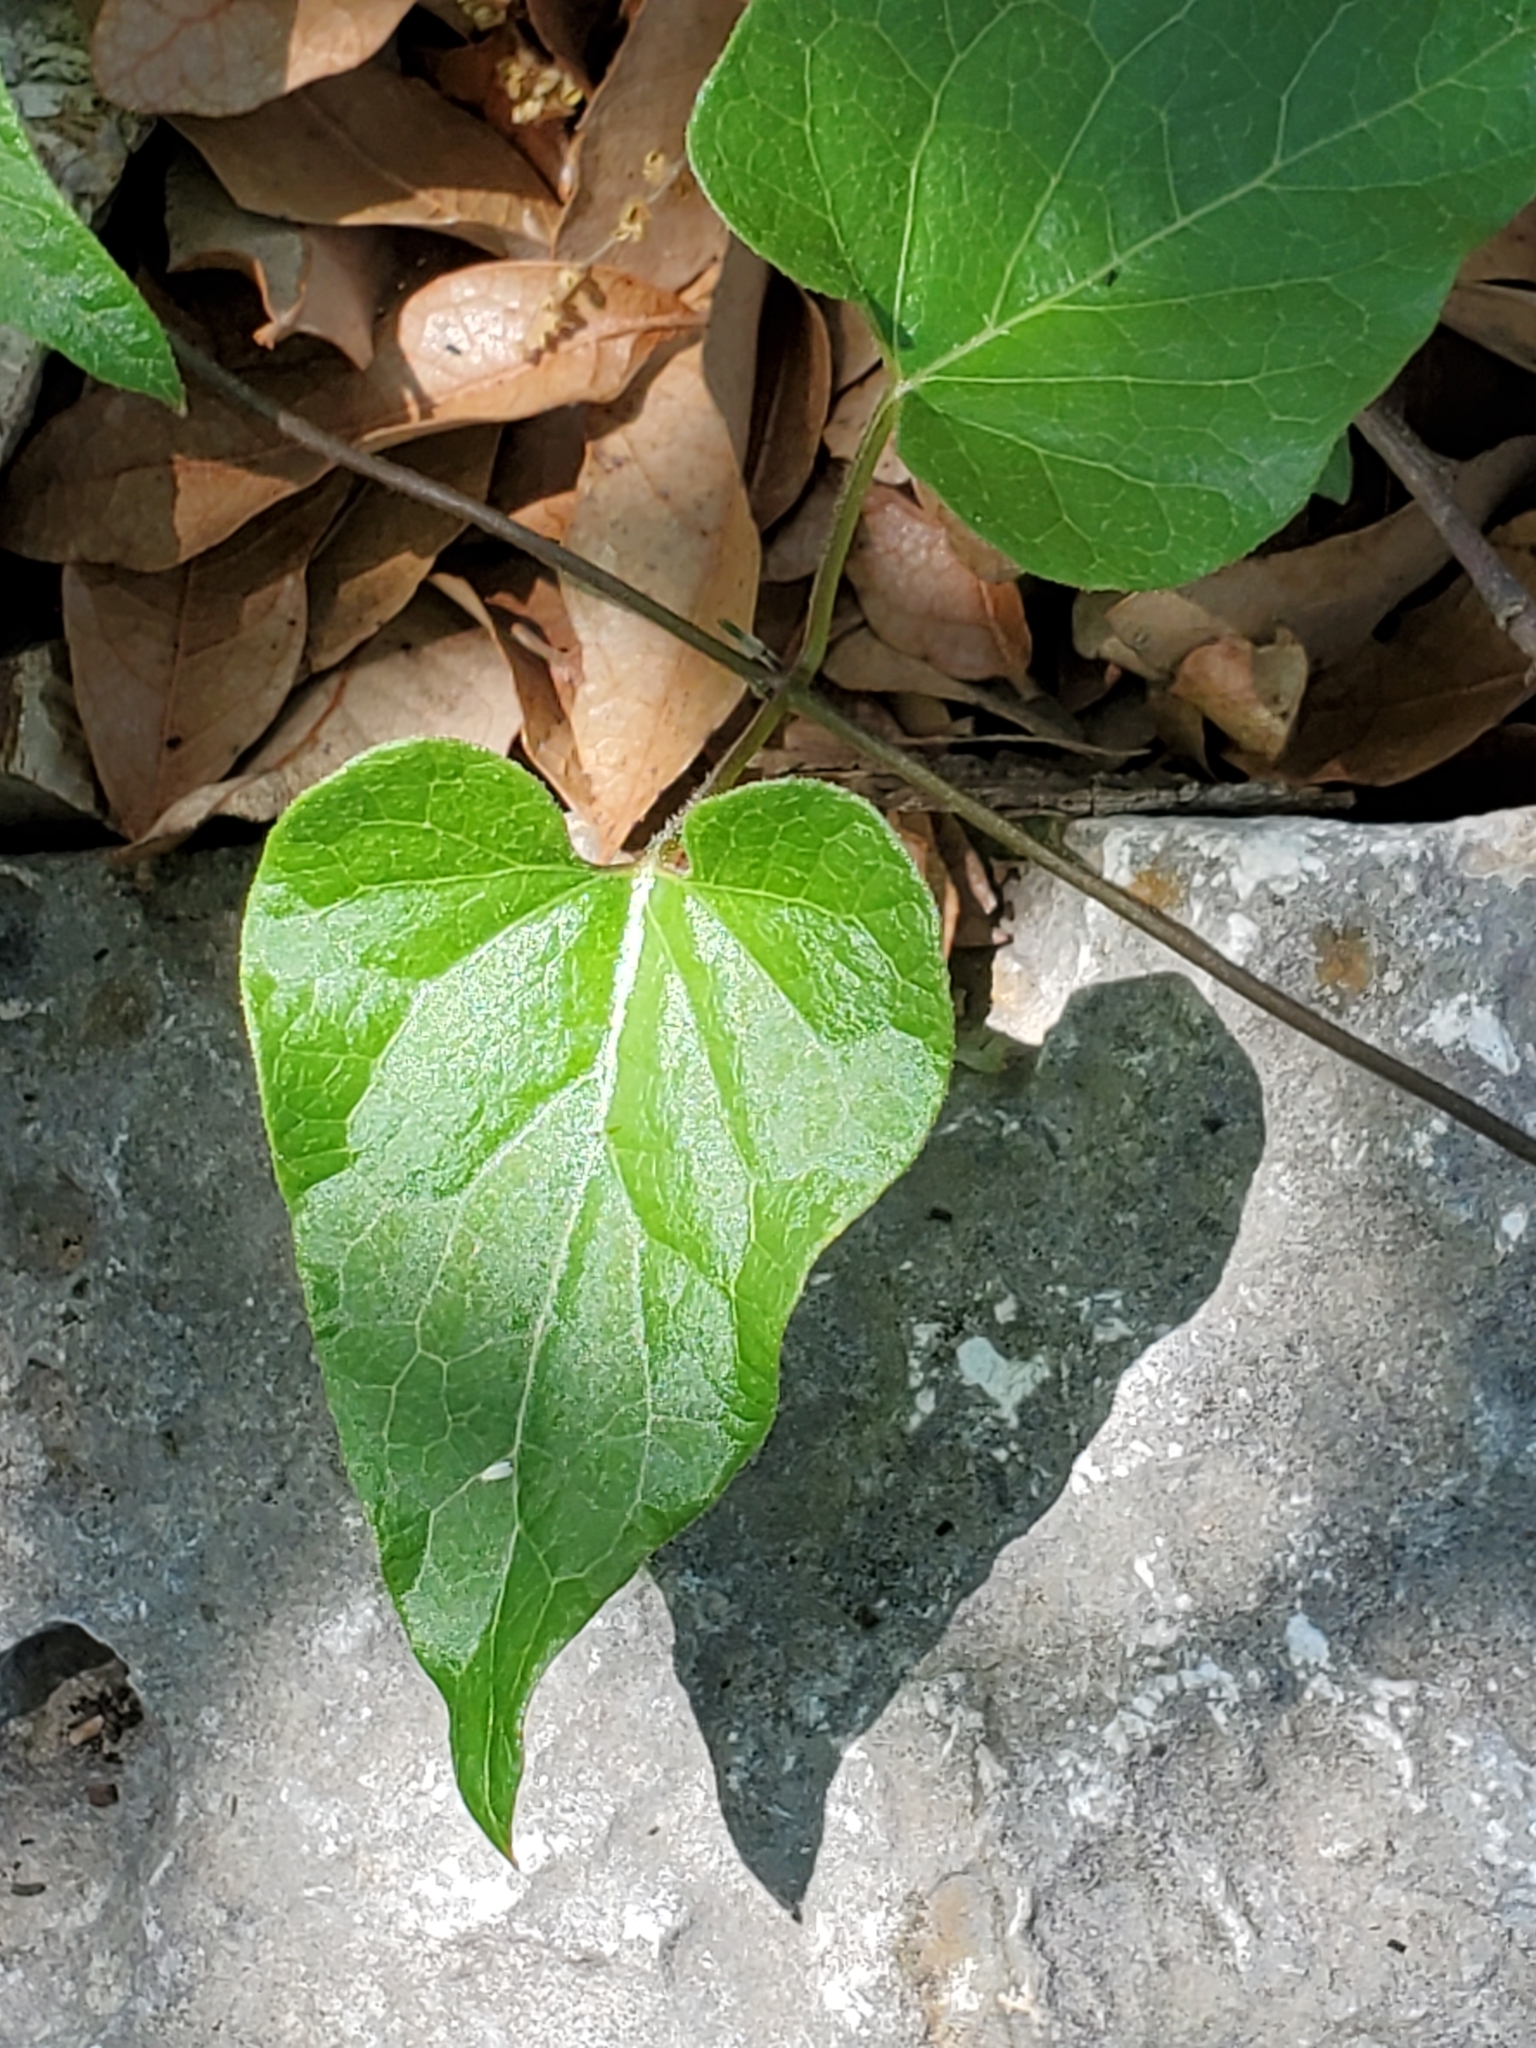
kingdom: Plantae
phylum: Tracheophyta
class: Magnoliopsida
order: Gentianales
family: Apocynaceae
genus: Matelea
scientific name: Matelea edwardsensis
